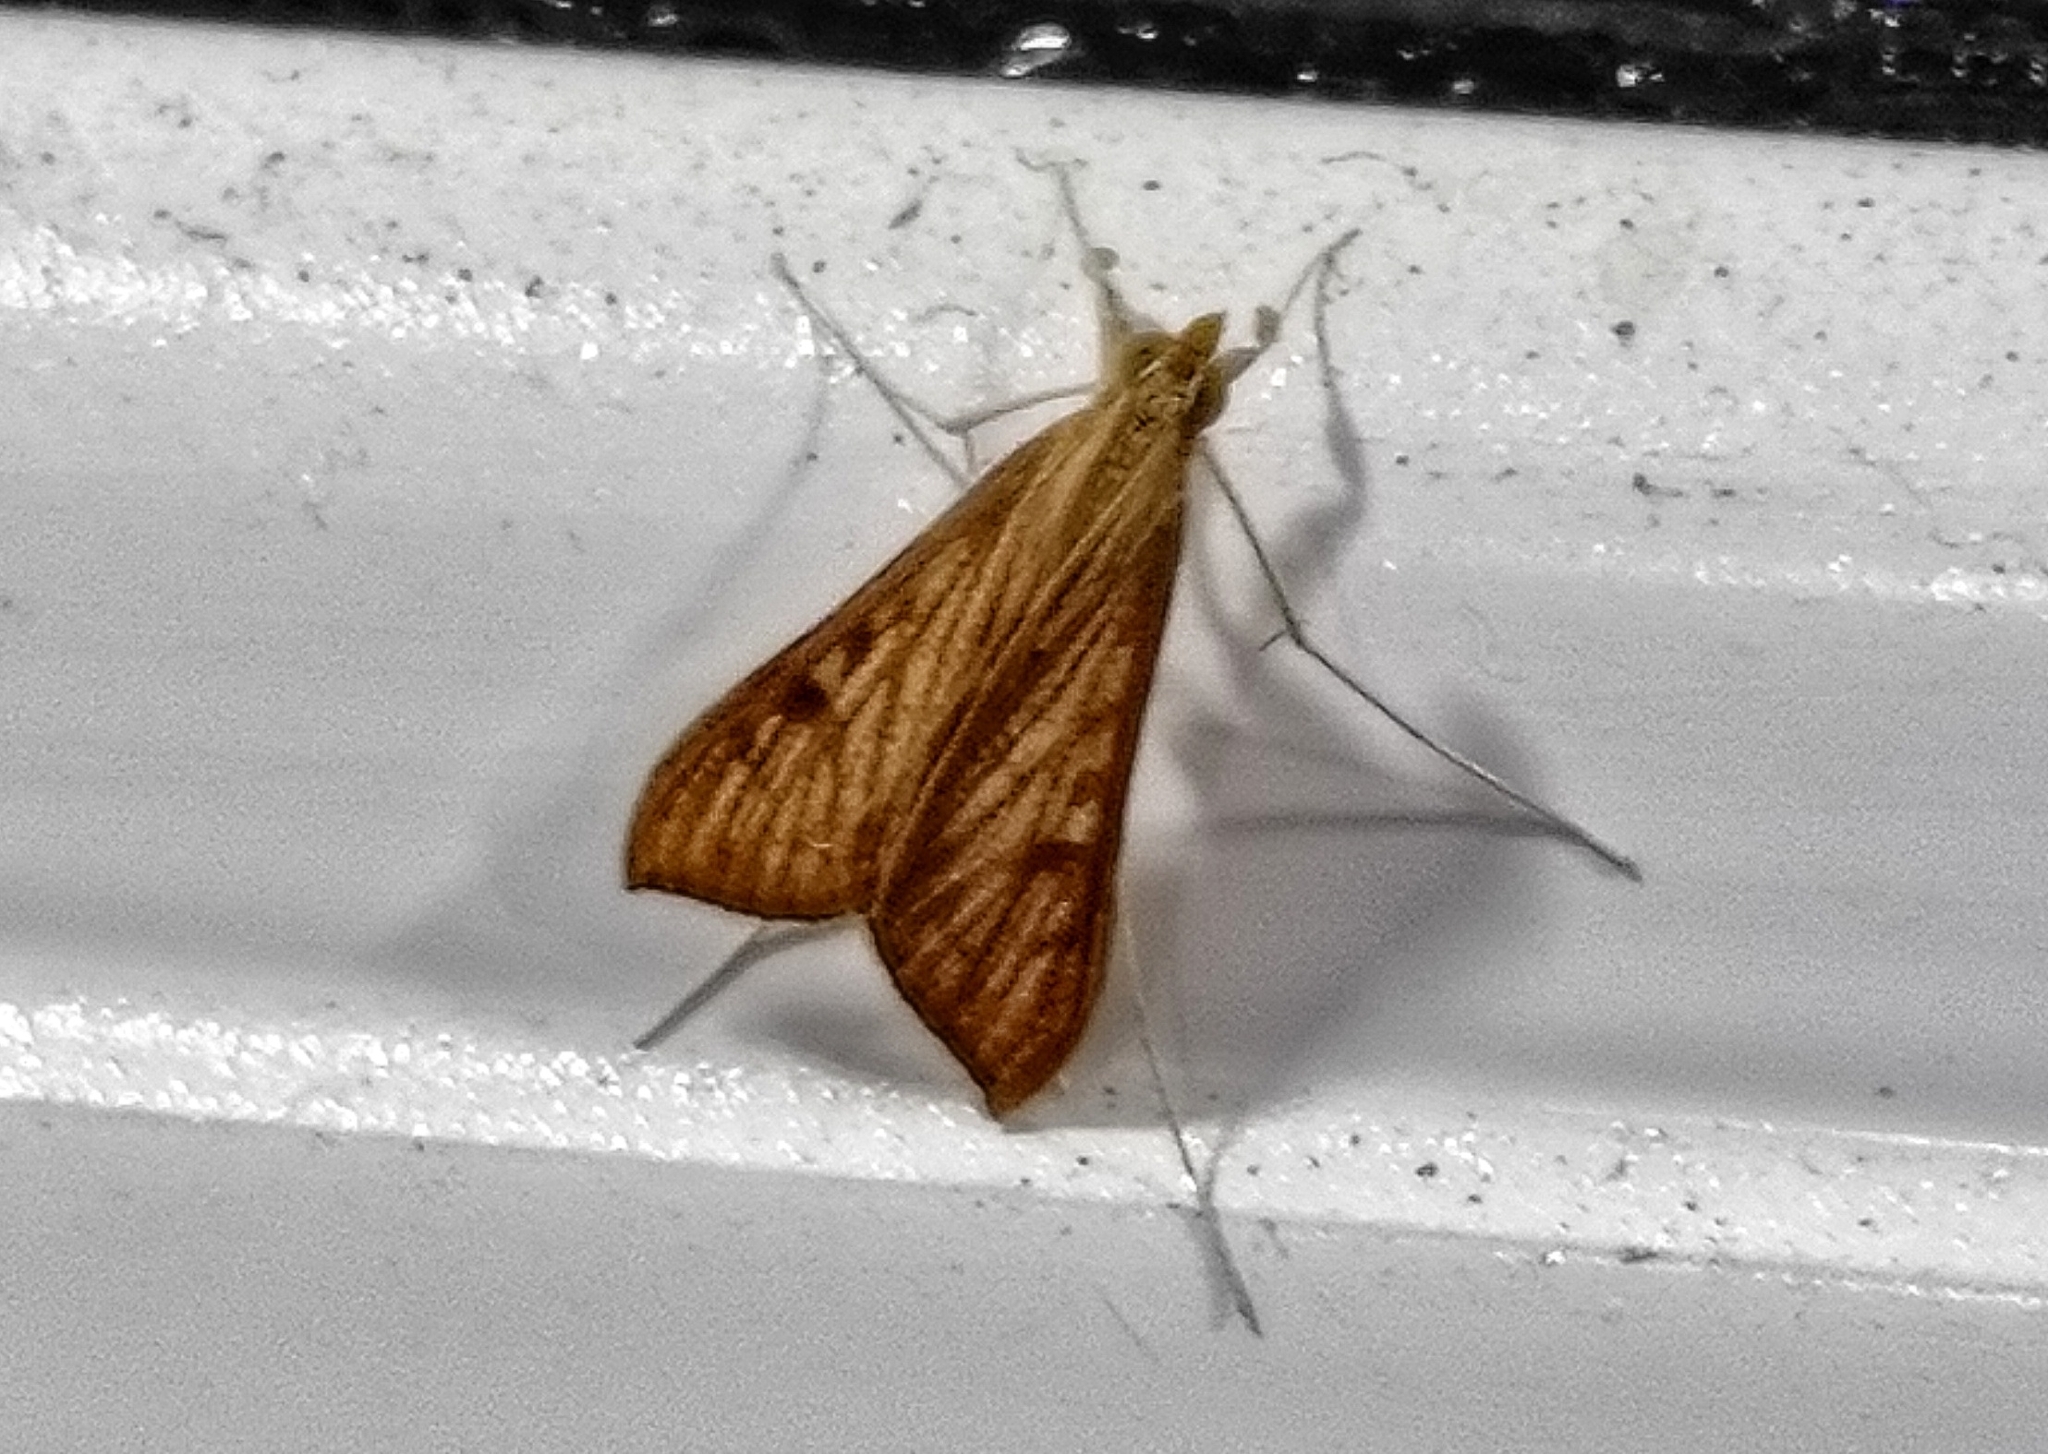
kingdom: Animalia
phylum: Arthropoda
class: Insecta
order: Lepidoptera
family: Crambidae
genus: Antigastra
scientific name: Antigastra catalaunalis
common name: Spanish dot
